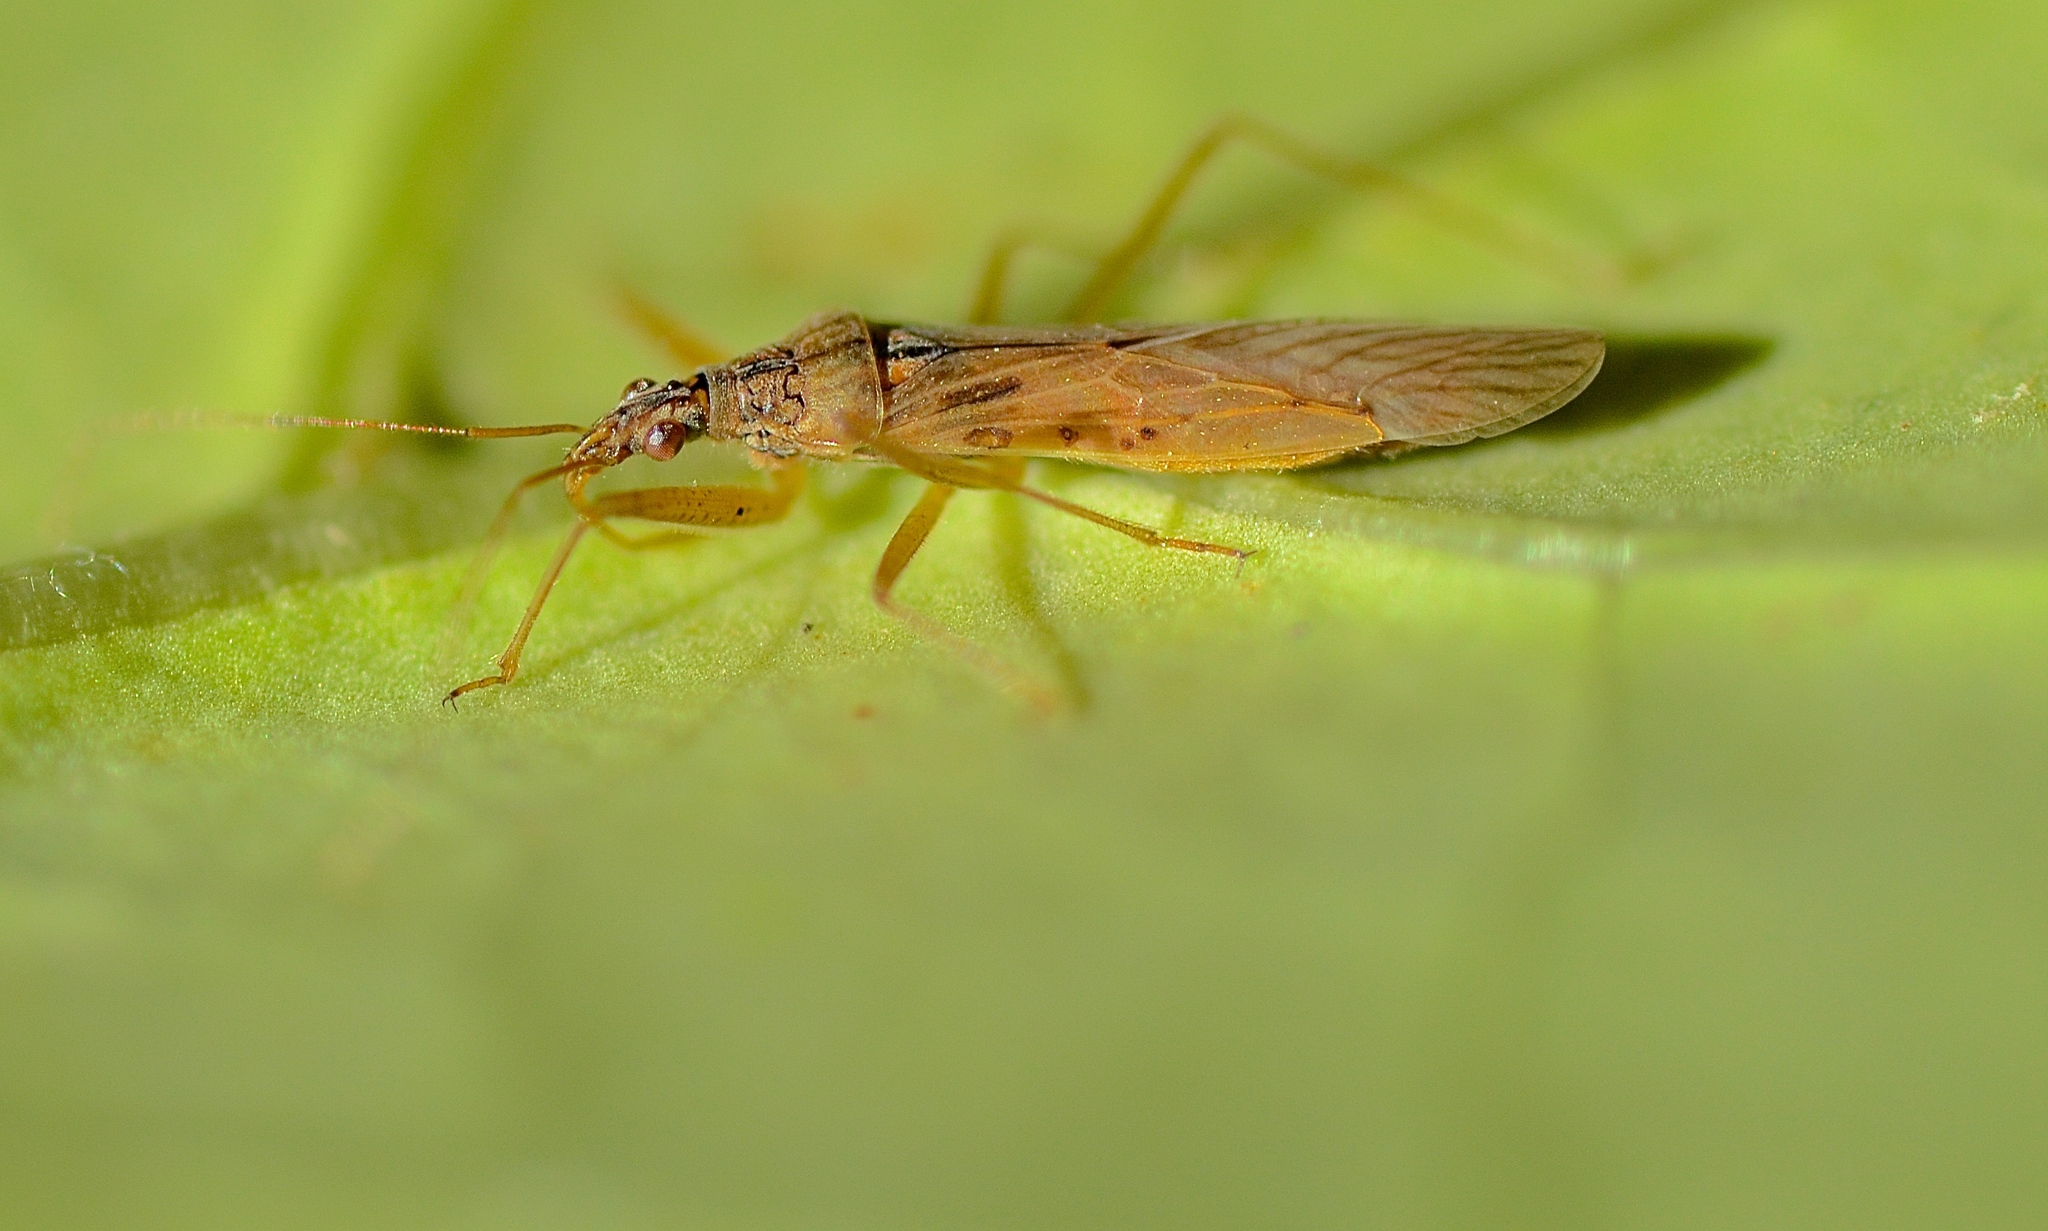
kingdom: Animalia
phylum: Arthropoda
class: Insecta
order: Hemiptera
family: Nabidae
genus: Nabis
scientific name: Nabis kinbergii
